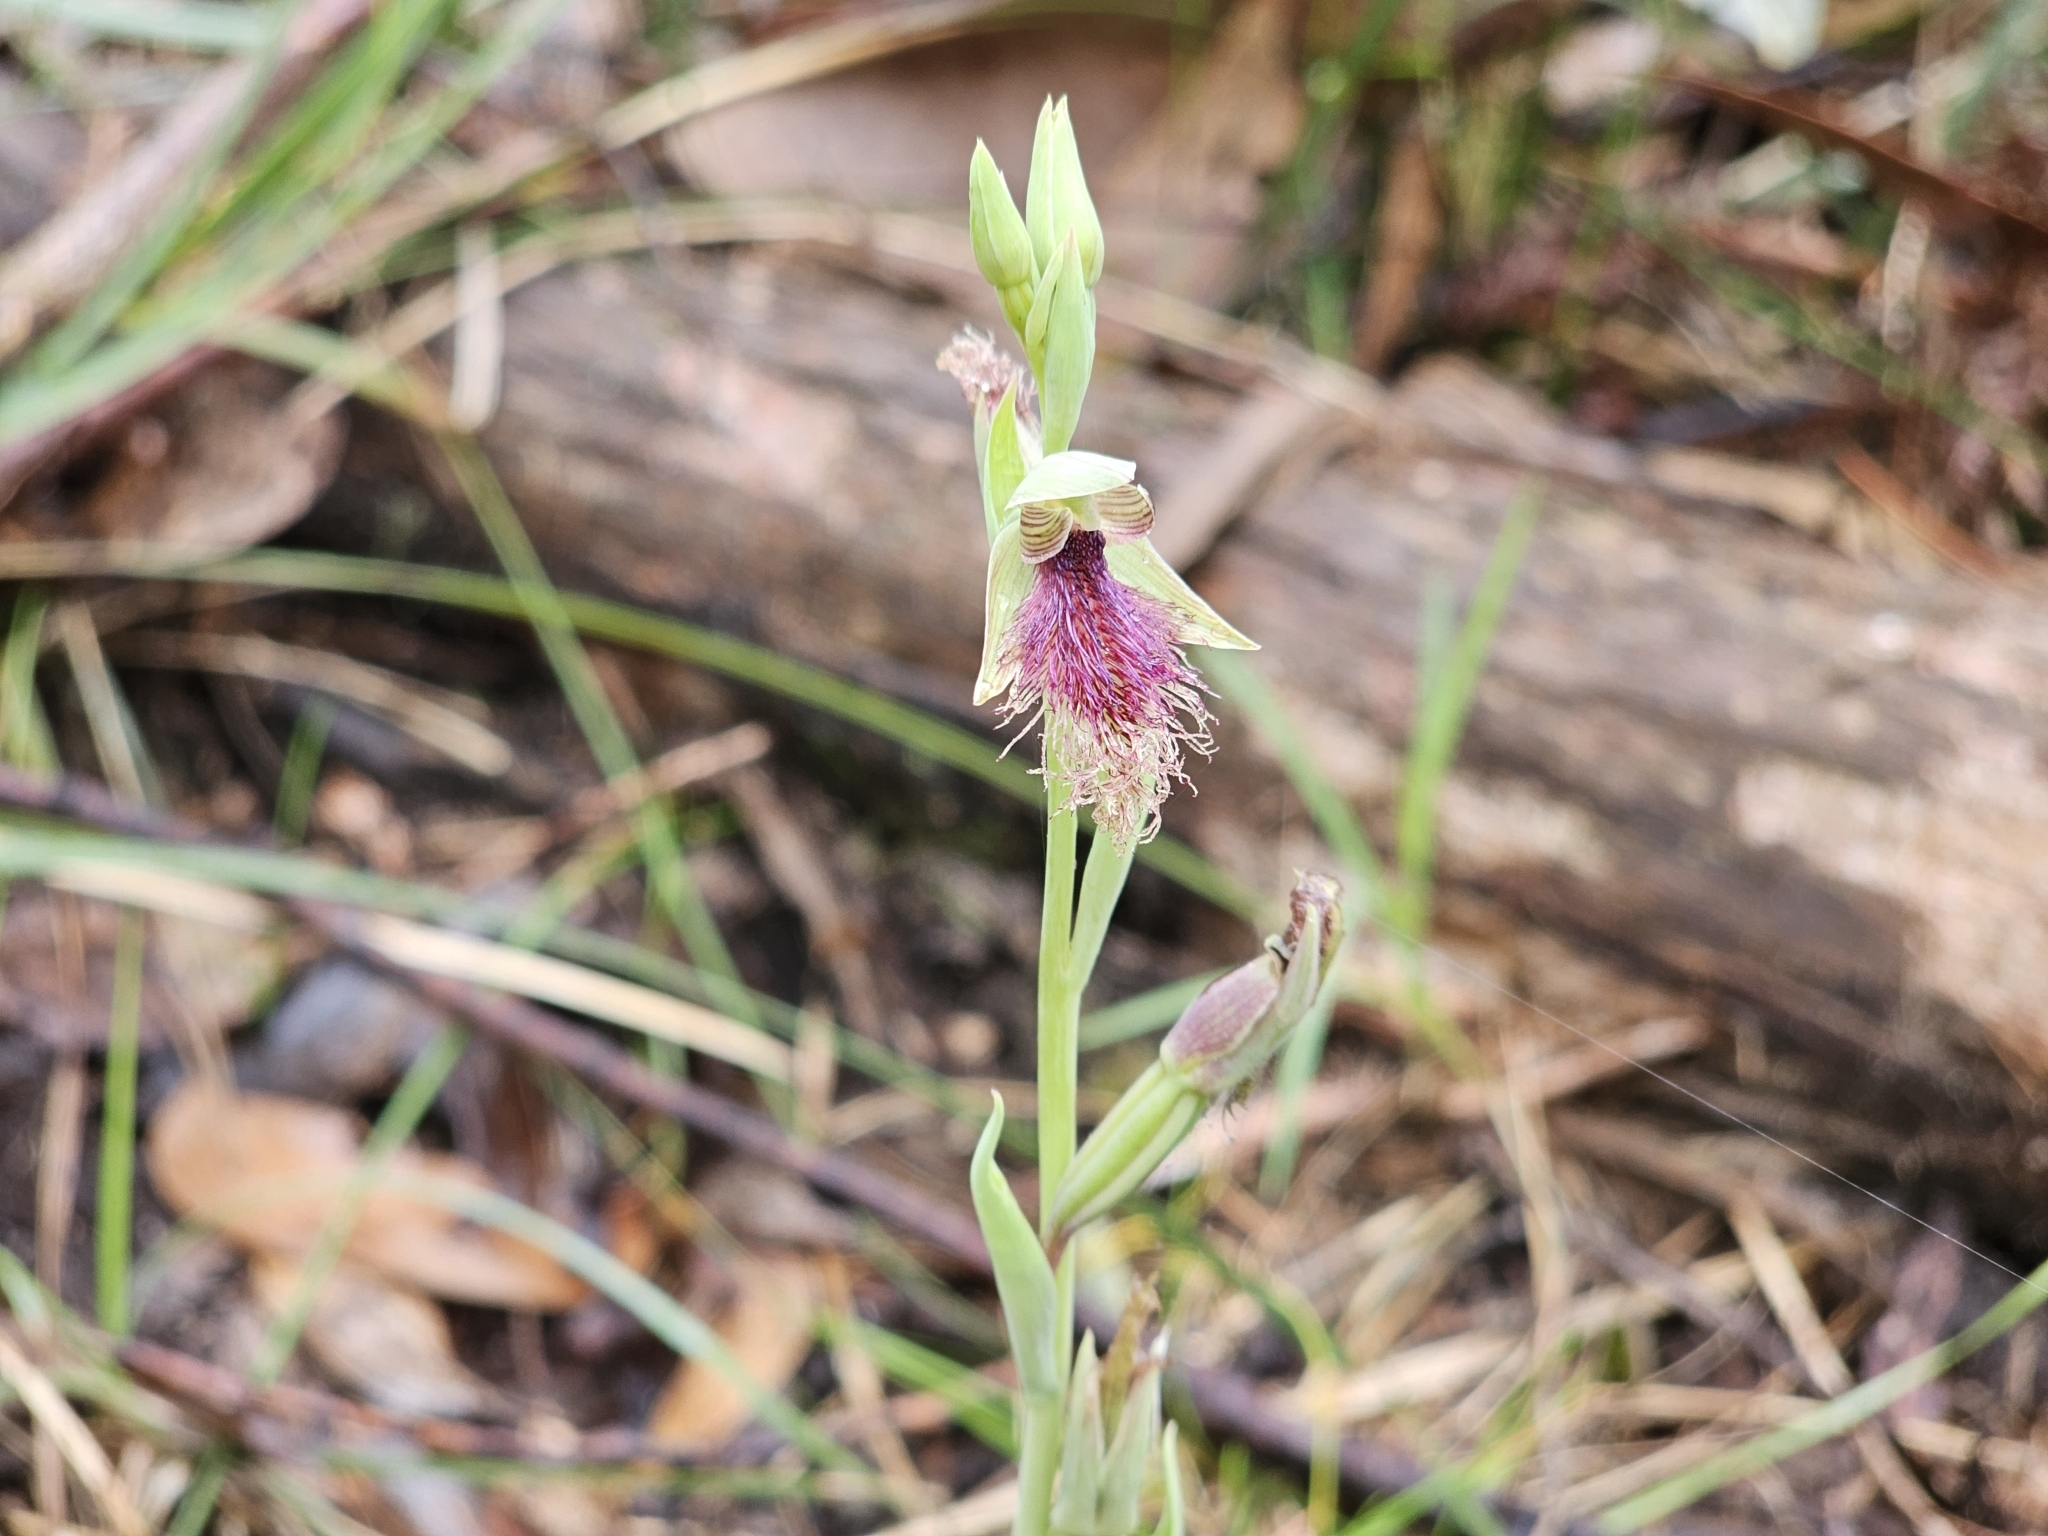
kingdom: Plantae
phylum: Tracheophyta
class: Liliopsida
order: Asparagales
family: Orchidaceae
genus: Calochilus
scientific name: Calochilus robertsonii
